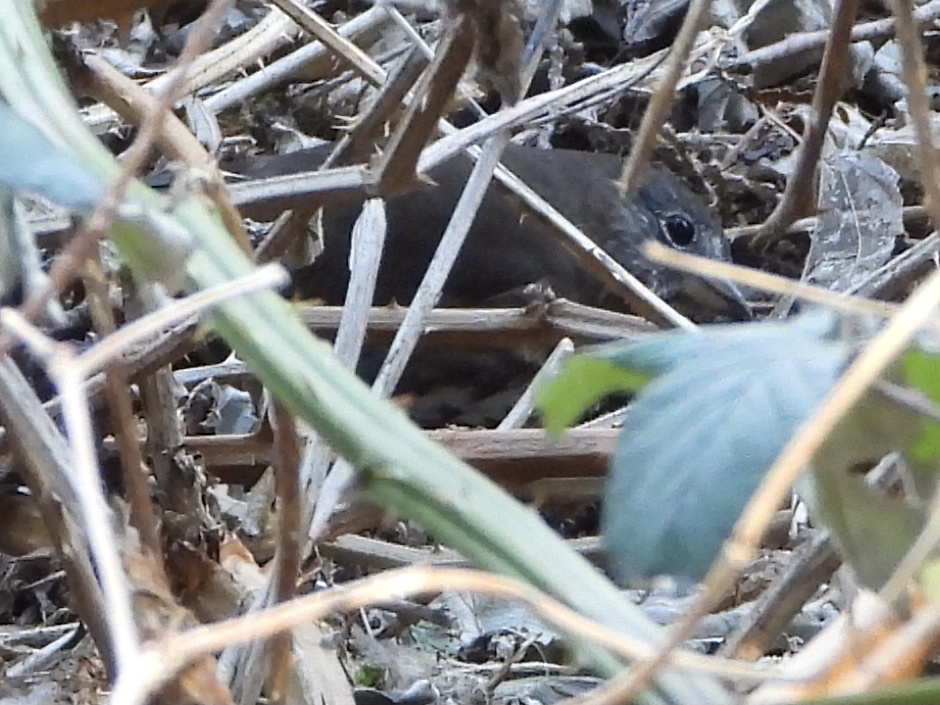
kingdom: Animalia
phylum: Chordata
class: Aves
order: Passeriformes
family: Passerellidae
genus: Passerella
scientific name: Passerella iliaca
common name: Fox sparrow
